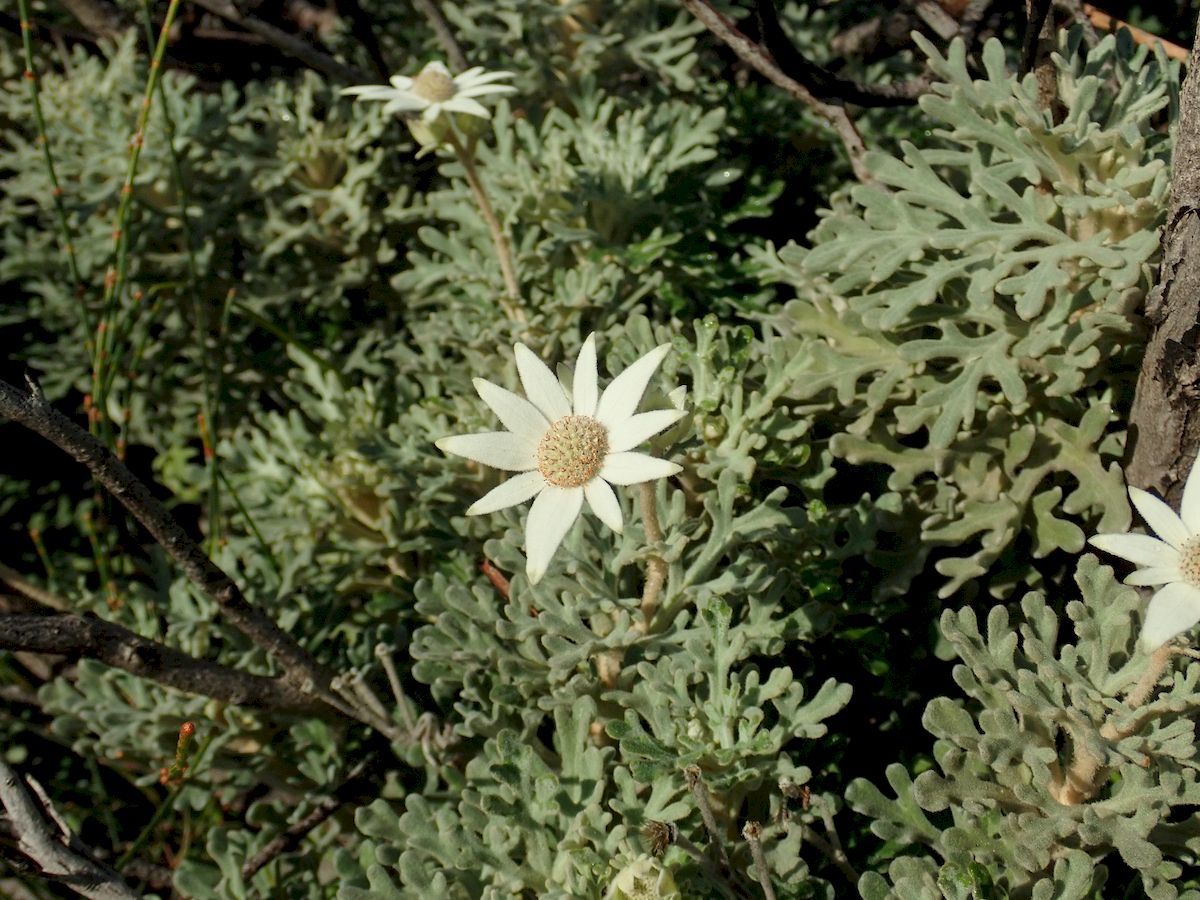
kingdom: Plantae
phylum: Tracheophyta
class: Magnoliopsida
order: Apiales
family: Apiaceae
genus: Actinotus
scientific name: Actinotus helianthi
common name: Flannel-flower
